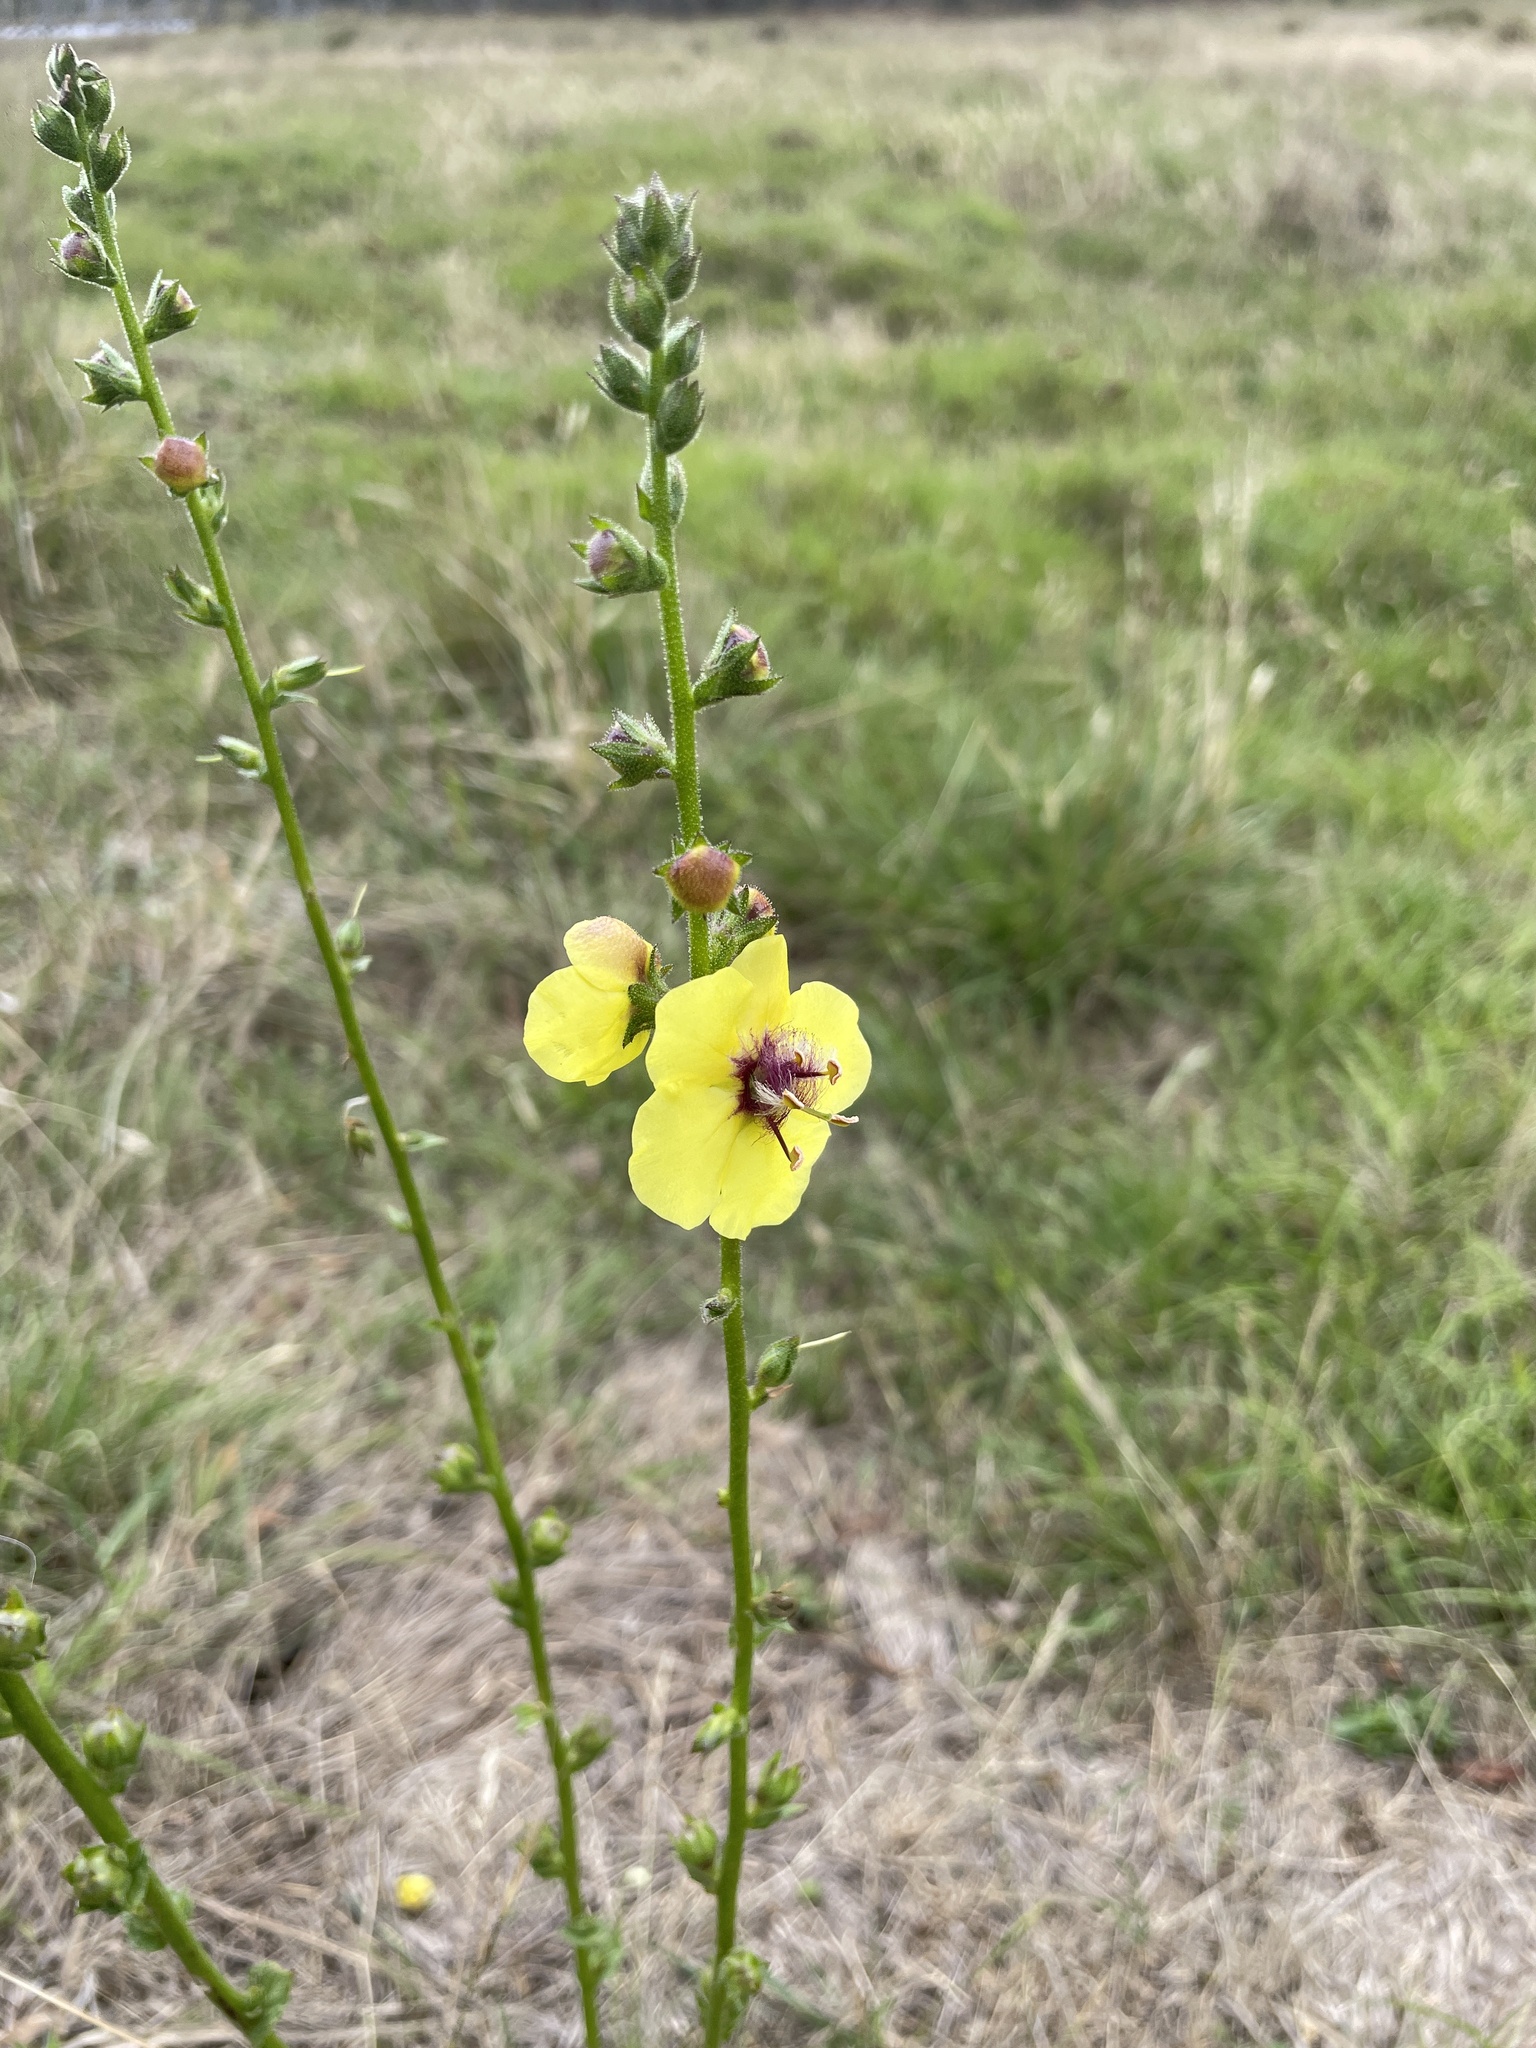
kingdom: Plantae
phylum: Tracheophyta
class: Magnoliopsida
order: Lamiales
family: Scrophulariaceae
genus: Verbascum
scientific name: Verbascum virgatum
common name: Twiggy mullein
